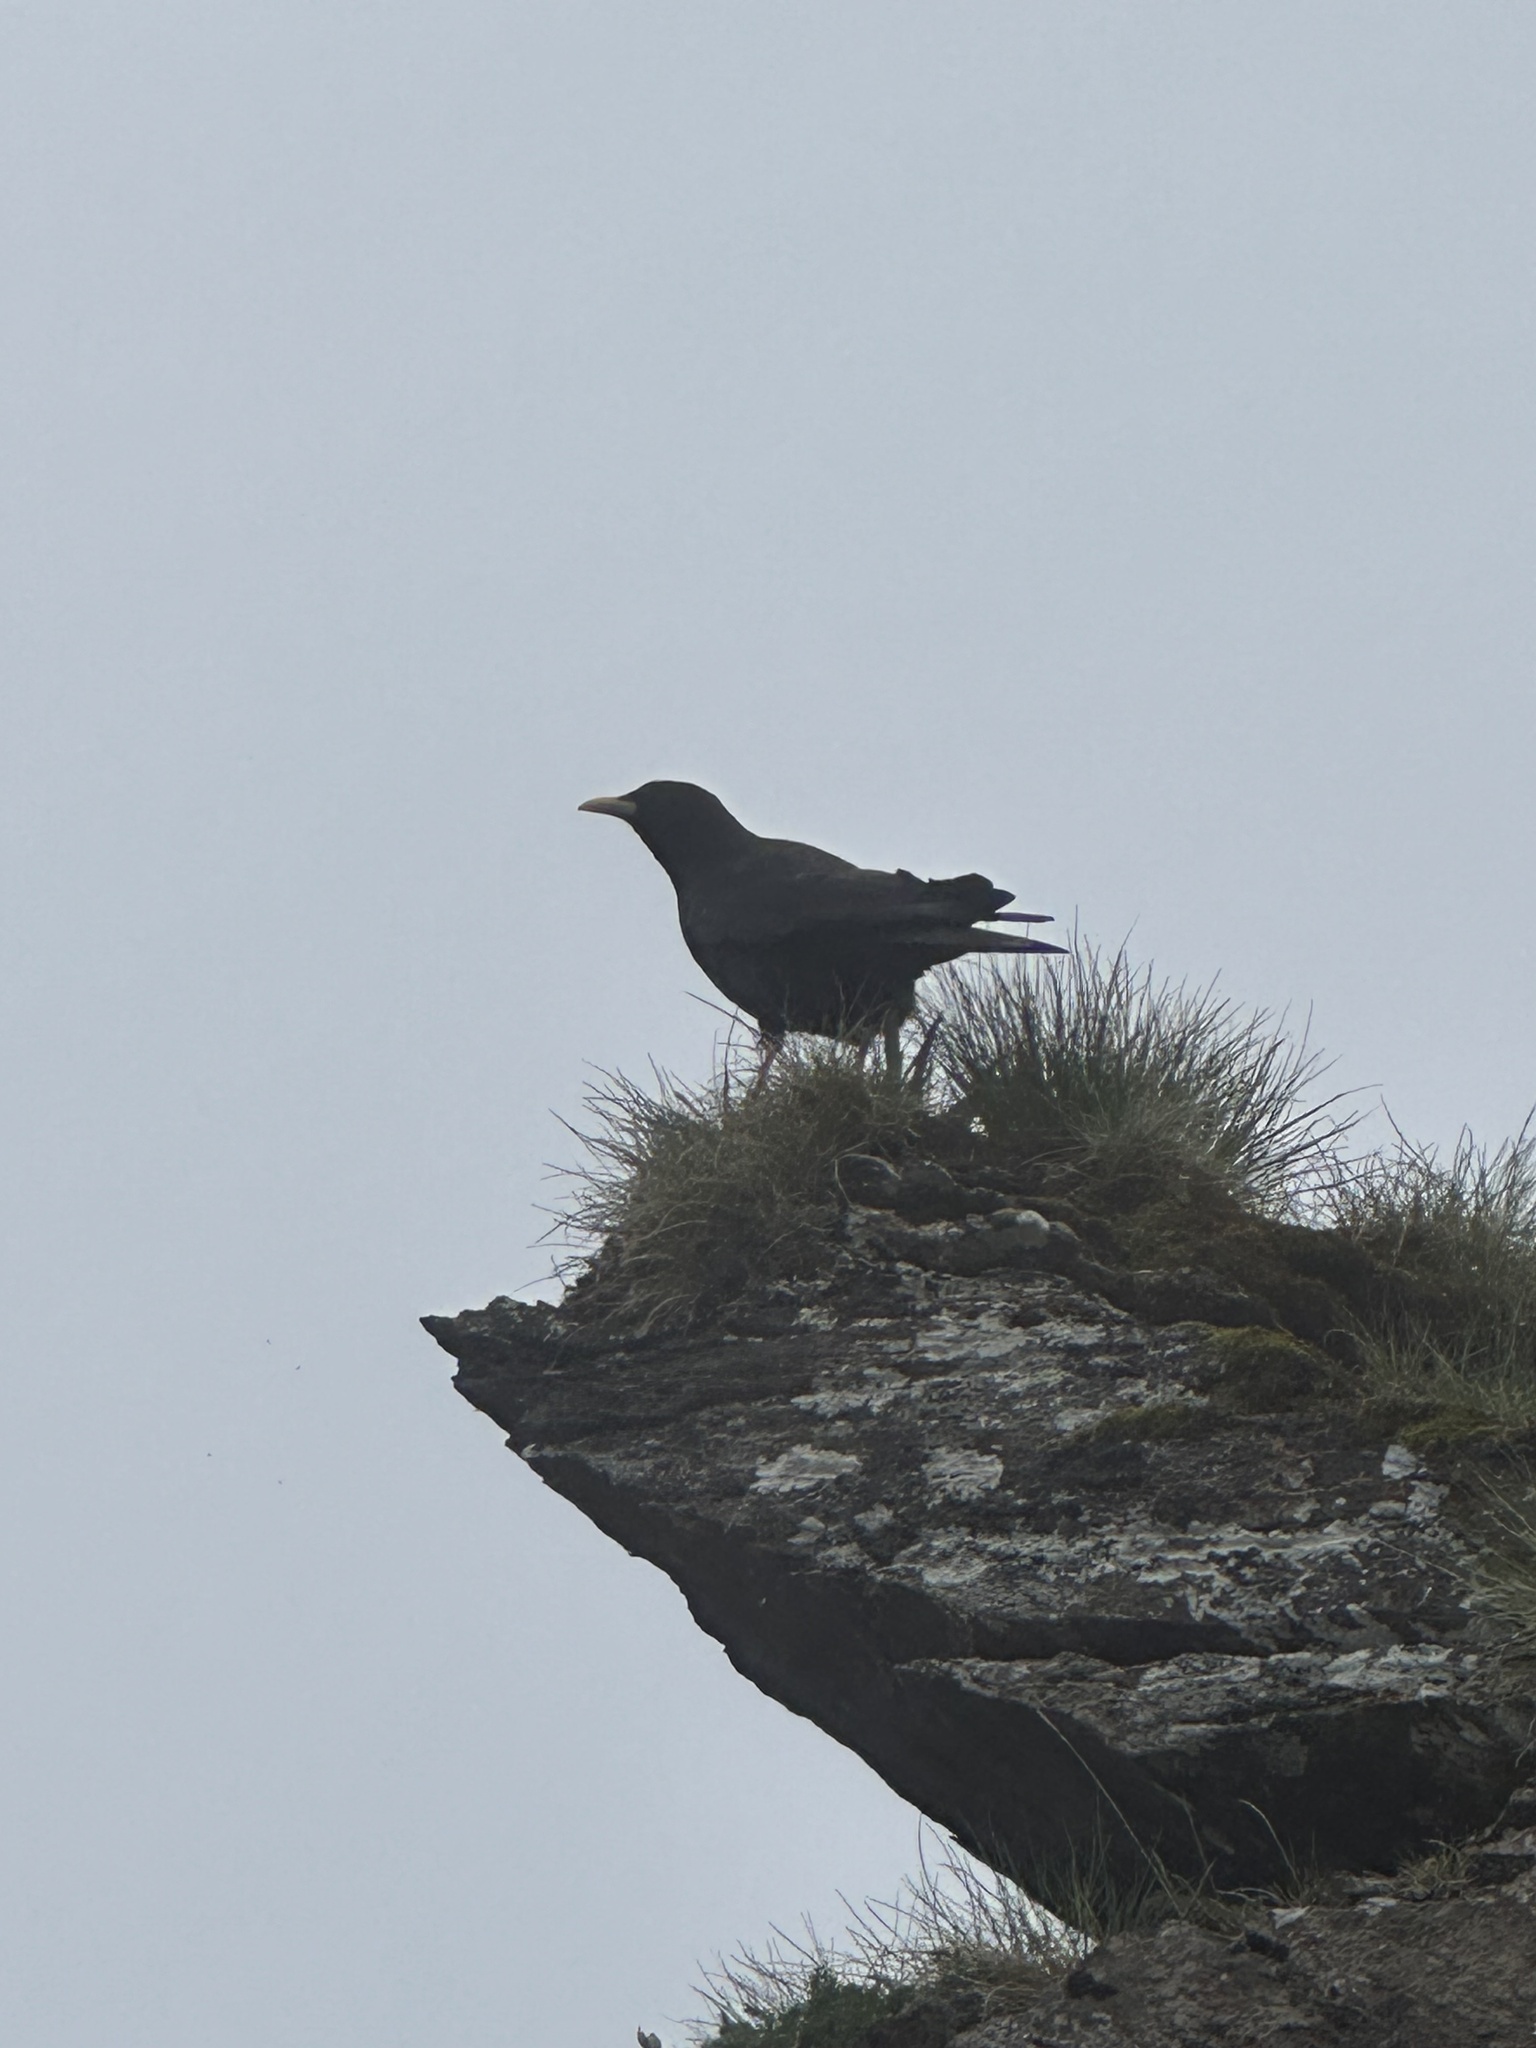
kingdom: Animalia
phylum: Chordata
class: Aves
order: Passeriformes
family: Corvidae
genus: Pyrrhocorax
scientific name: Pyrrhocorax graculus
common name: Alpine chough
